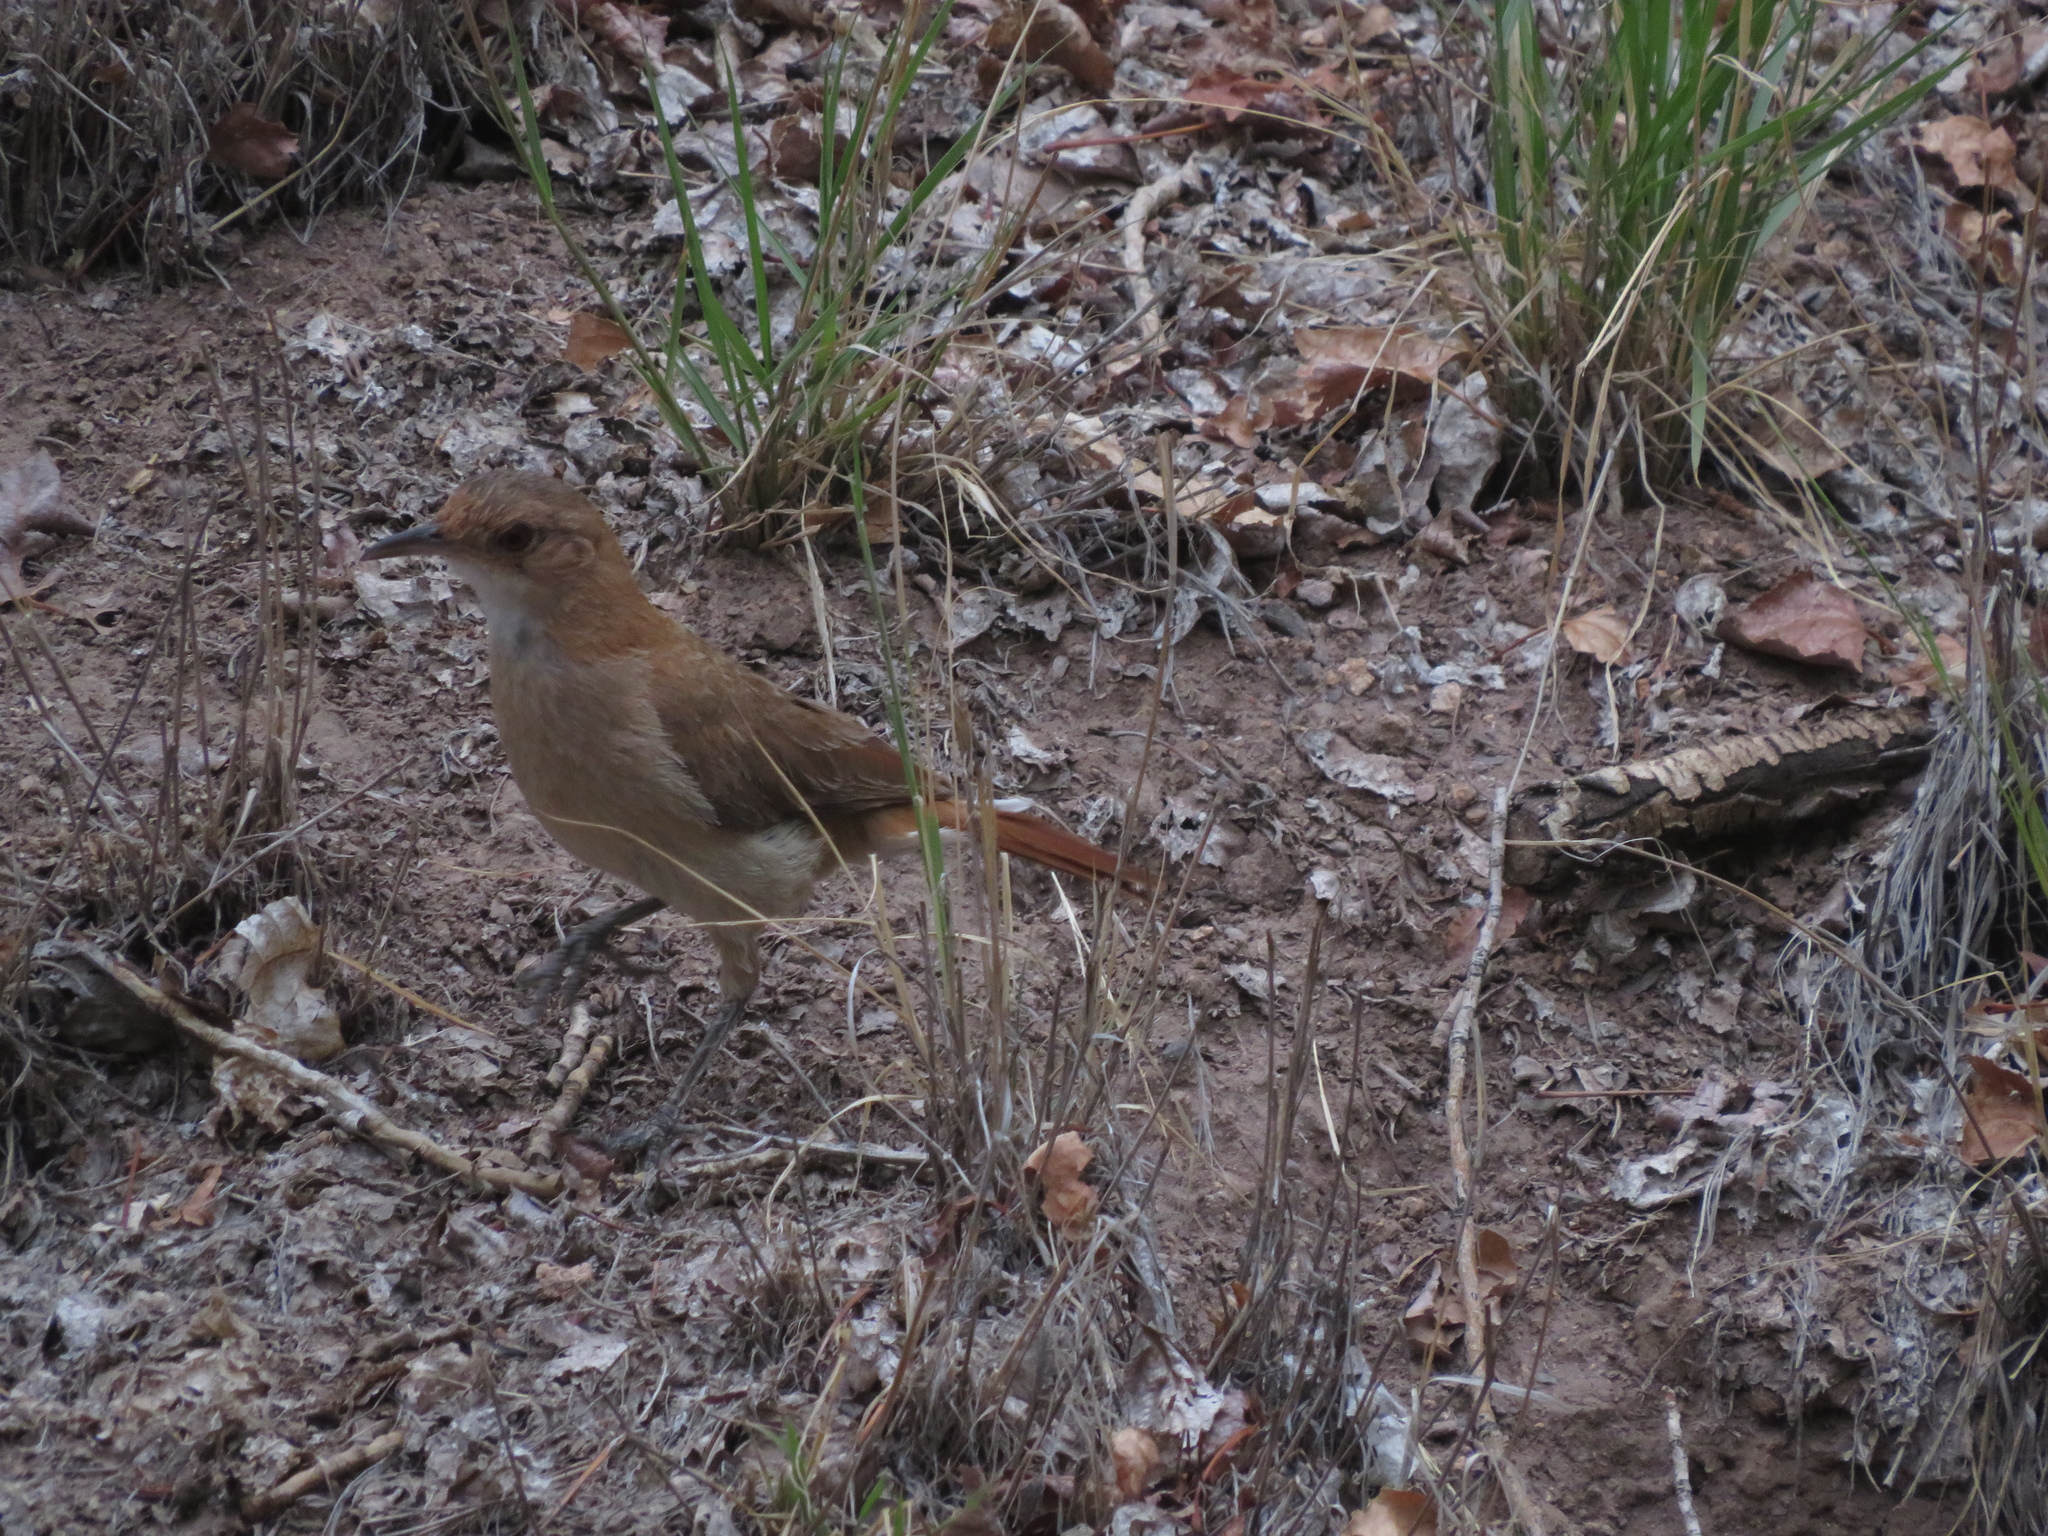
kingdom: Animalia
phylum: Chordata
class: Aves
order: Passeriformes
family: Furnariidae
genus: Furnarius
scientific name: Furnarius rufus
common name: Rufous hornero
